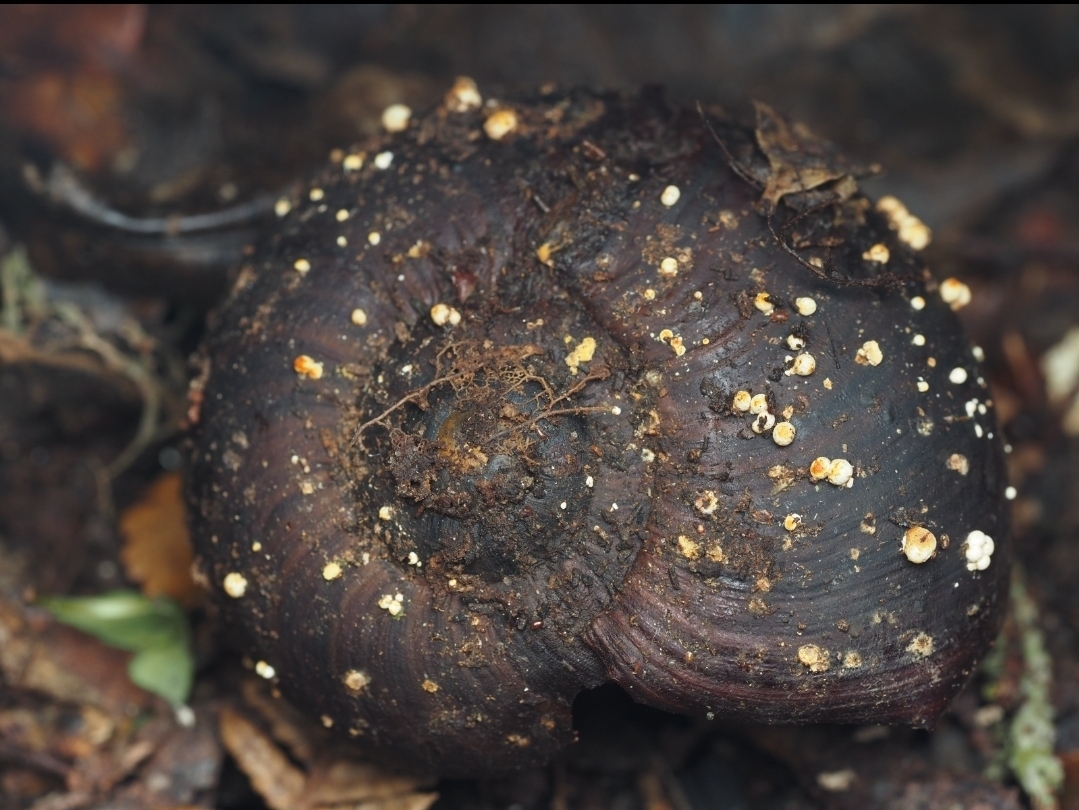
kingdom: Fungi
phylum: Ascomycota
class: Eurotiomycetes
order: Onygenales
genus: Harorepupu
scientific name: Harorepupu aotearoa
